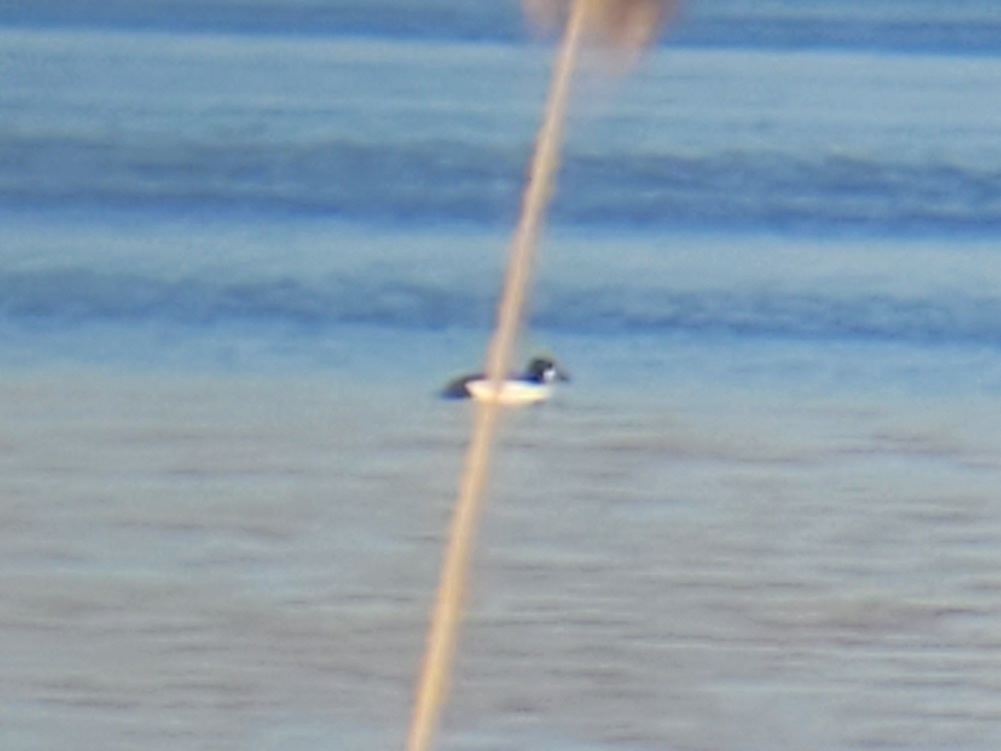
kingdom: Animalia
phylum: Chordata
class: Aves
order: Anseriformes
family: Anatidae
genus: Bucephala
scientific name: Bucephala clangula
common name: Common goldeneye
